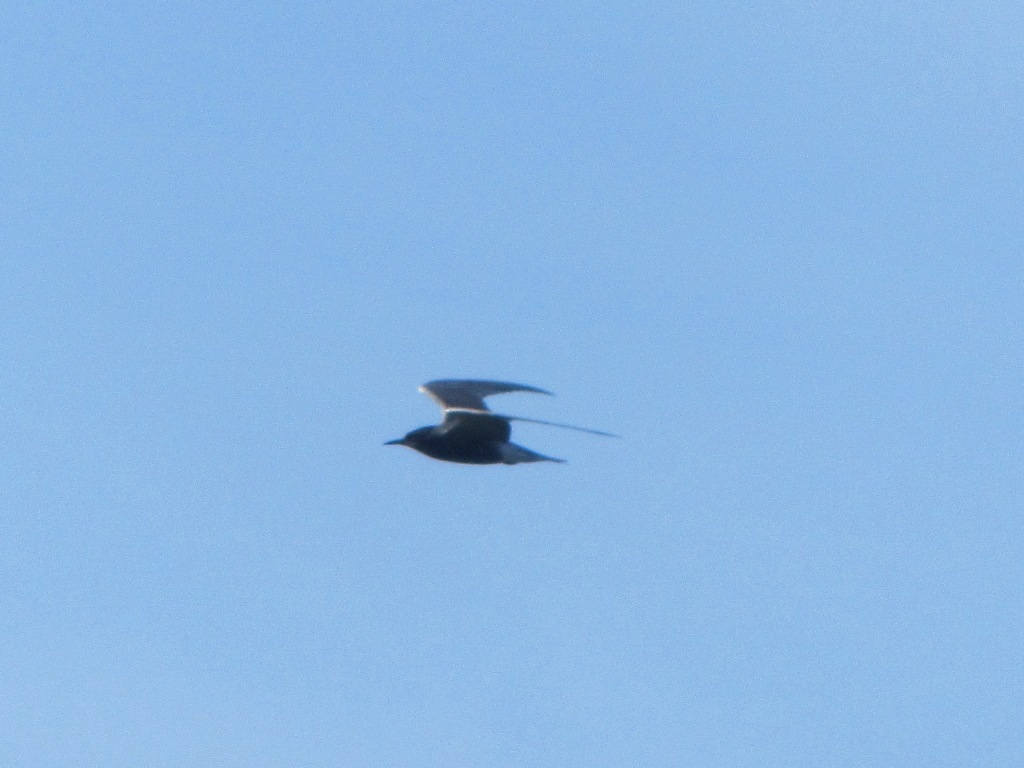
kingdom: Animalia
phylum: Chordata
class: Aves
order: Charadriiformes
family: Laridae
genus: Chlidonias
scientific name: Chlidonias niger
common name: Black tern
